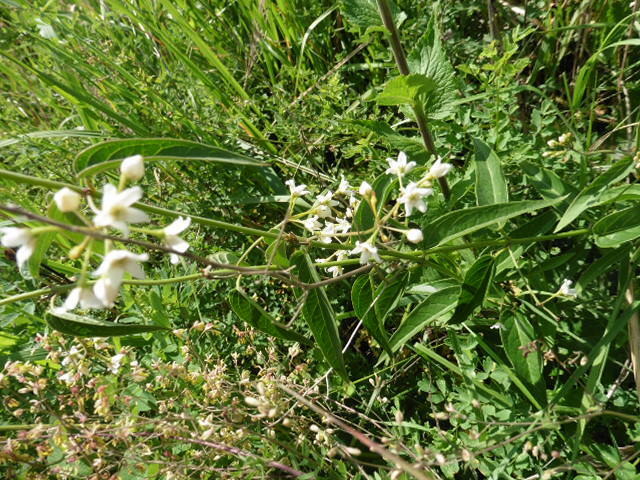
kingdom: Plantae
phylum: Tracheophyta
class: Magnoliopsida
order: Gentianales
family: Apocynaceae
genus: Vincetoxicum
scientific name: Vincetoxicum hirundinaria
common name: White swallowwort
